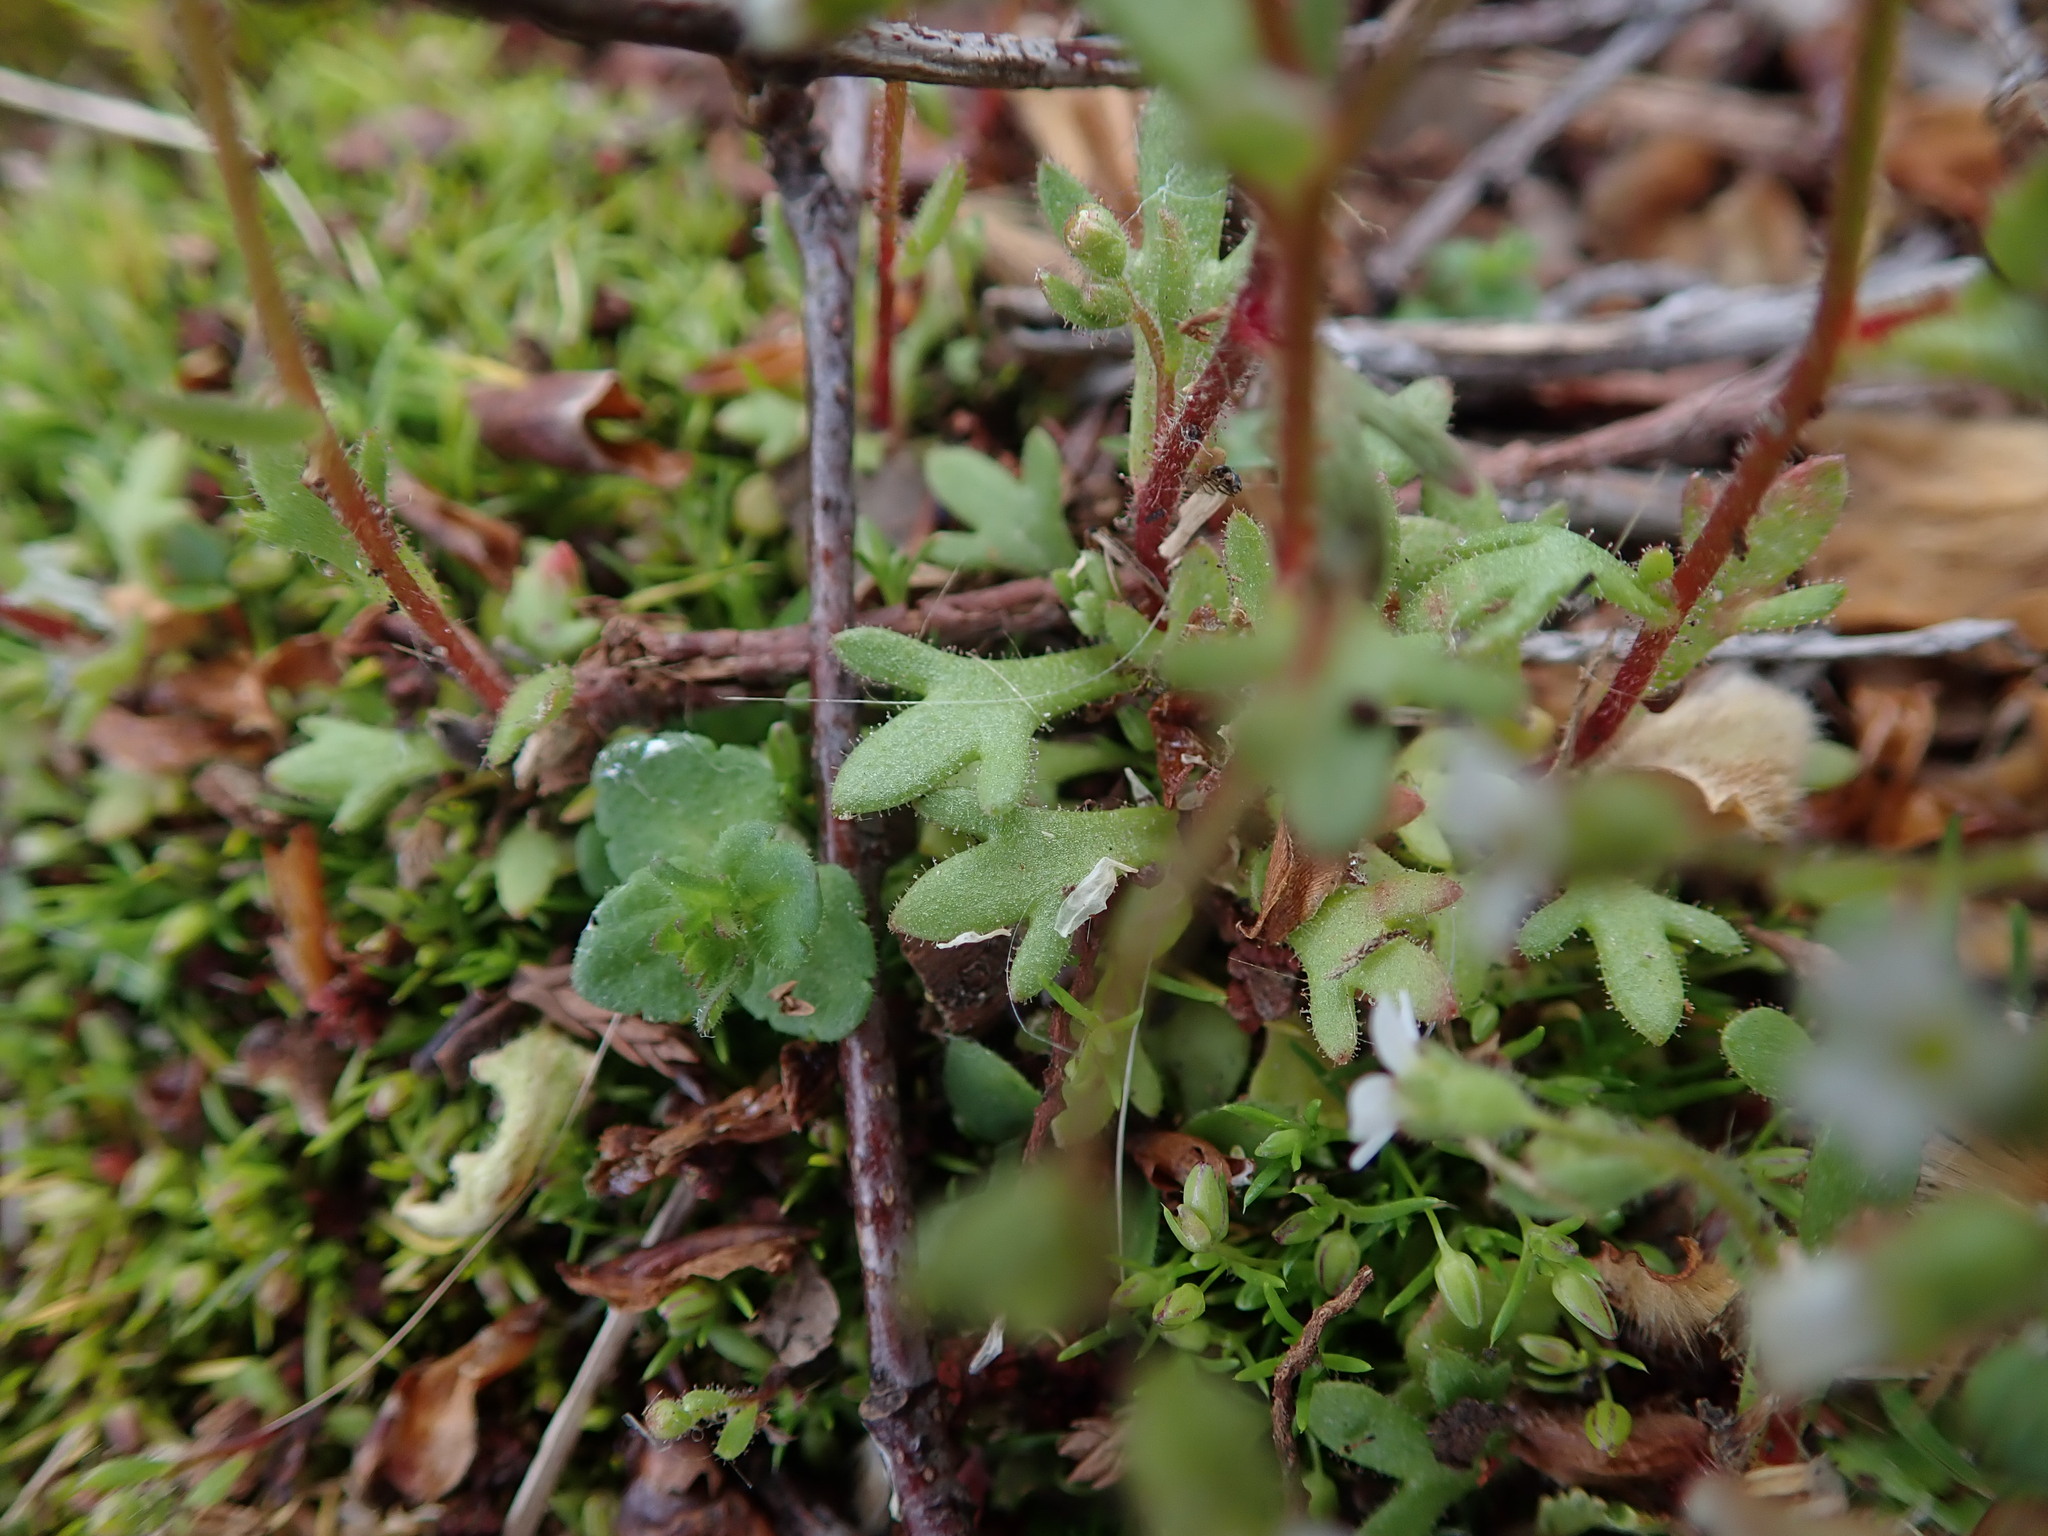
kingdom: Plantae
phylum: Tracheophyta
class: Magnoliopsida
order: Saxifragales
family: Saxifragaceae
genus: Saxifraga
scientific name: Saxifraga tridactylites
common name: Rue-leaved saxifrage
